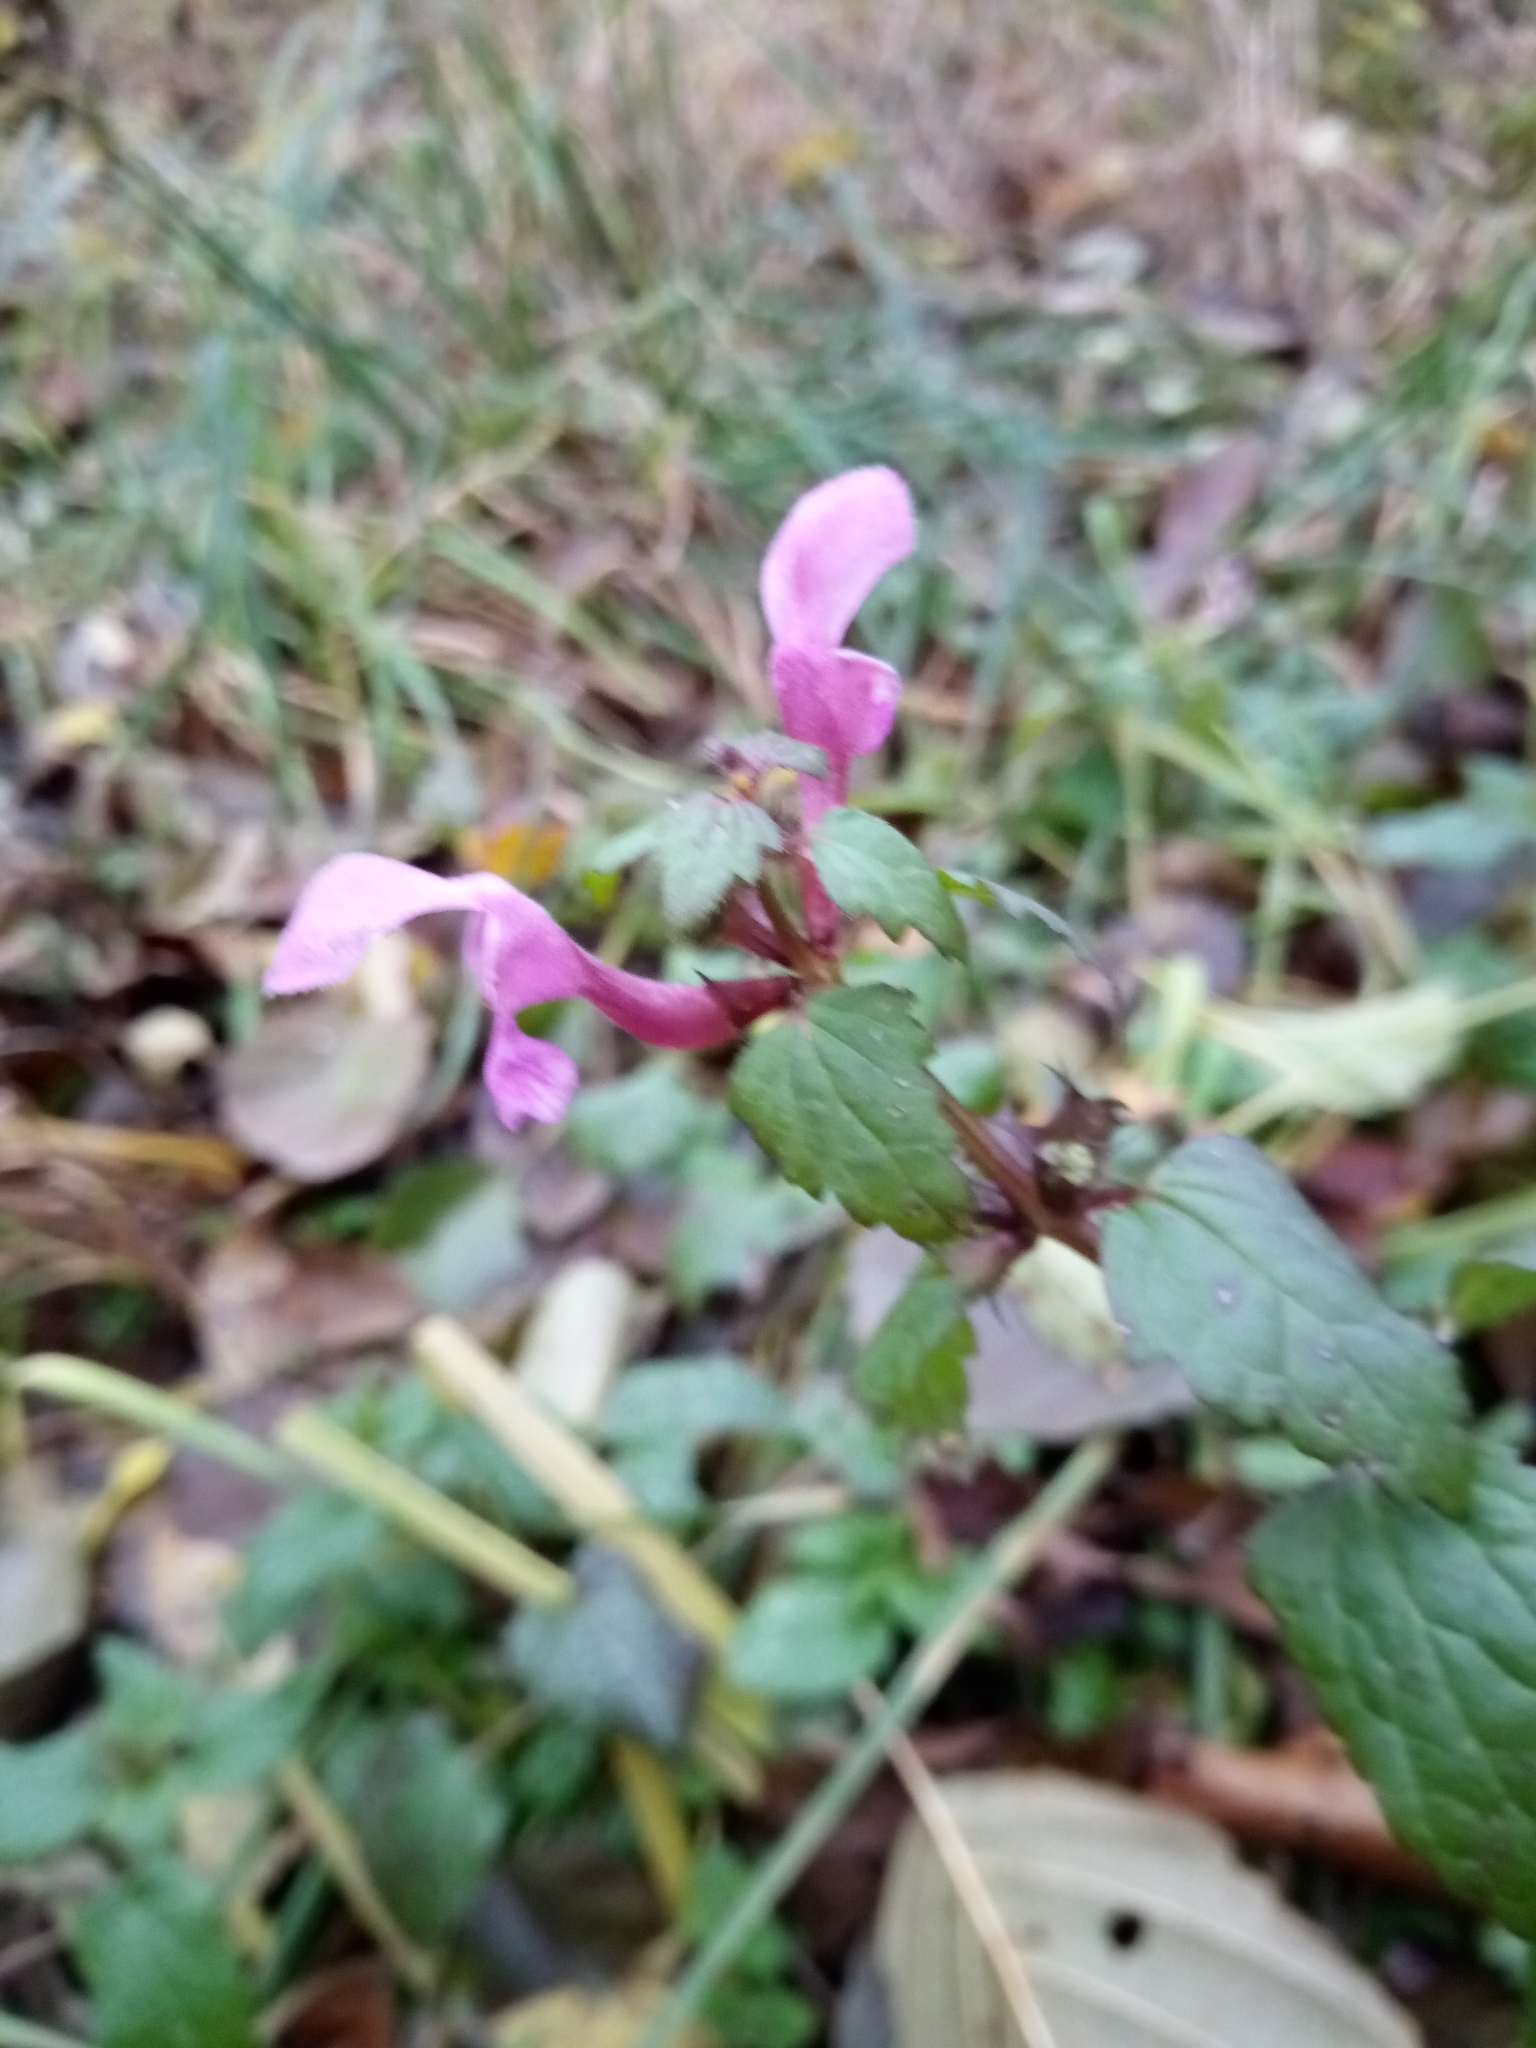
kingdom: Plantae
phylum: Tracheophyta
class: Magnoliopsida
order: Lamiales
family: Lamiaceae
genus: Lamium
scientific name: Lamium maculatum
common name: Spotted dead-nettle
